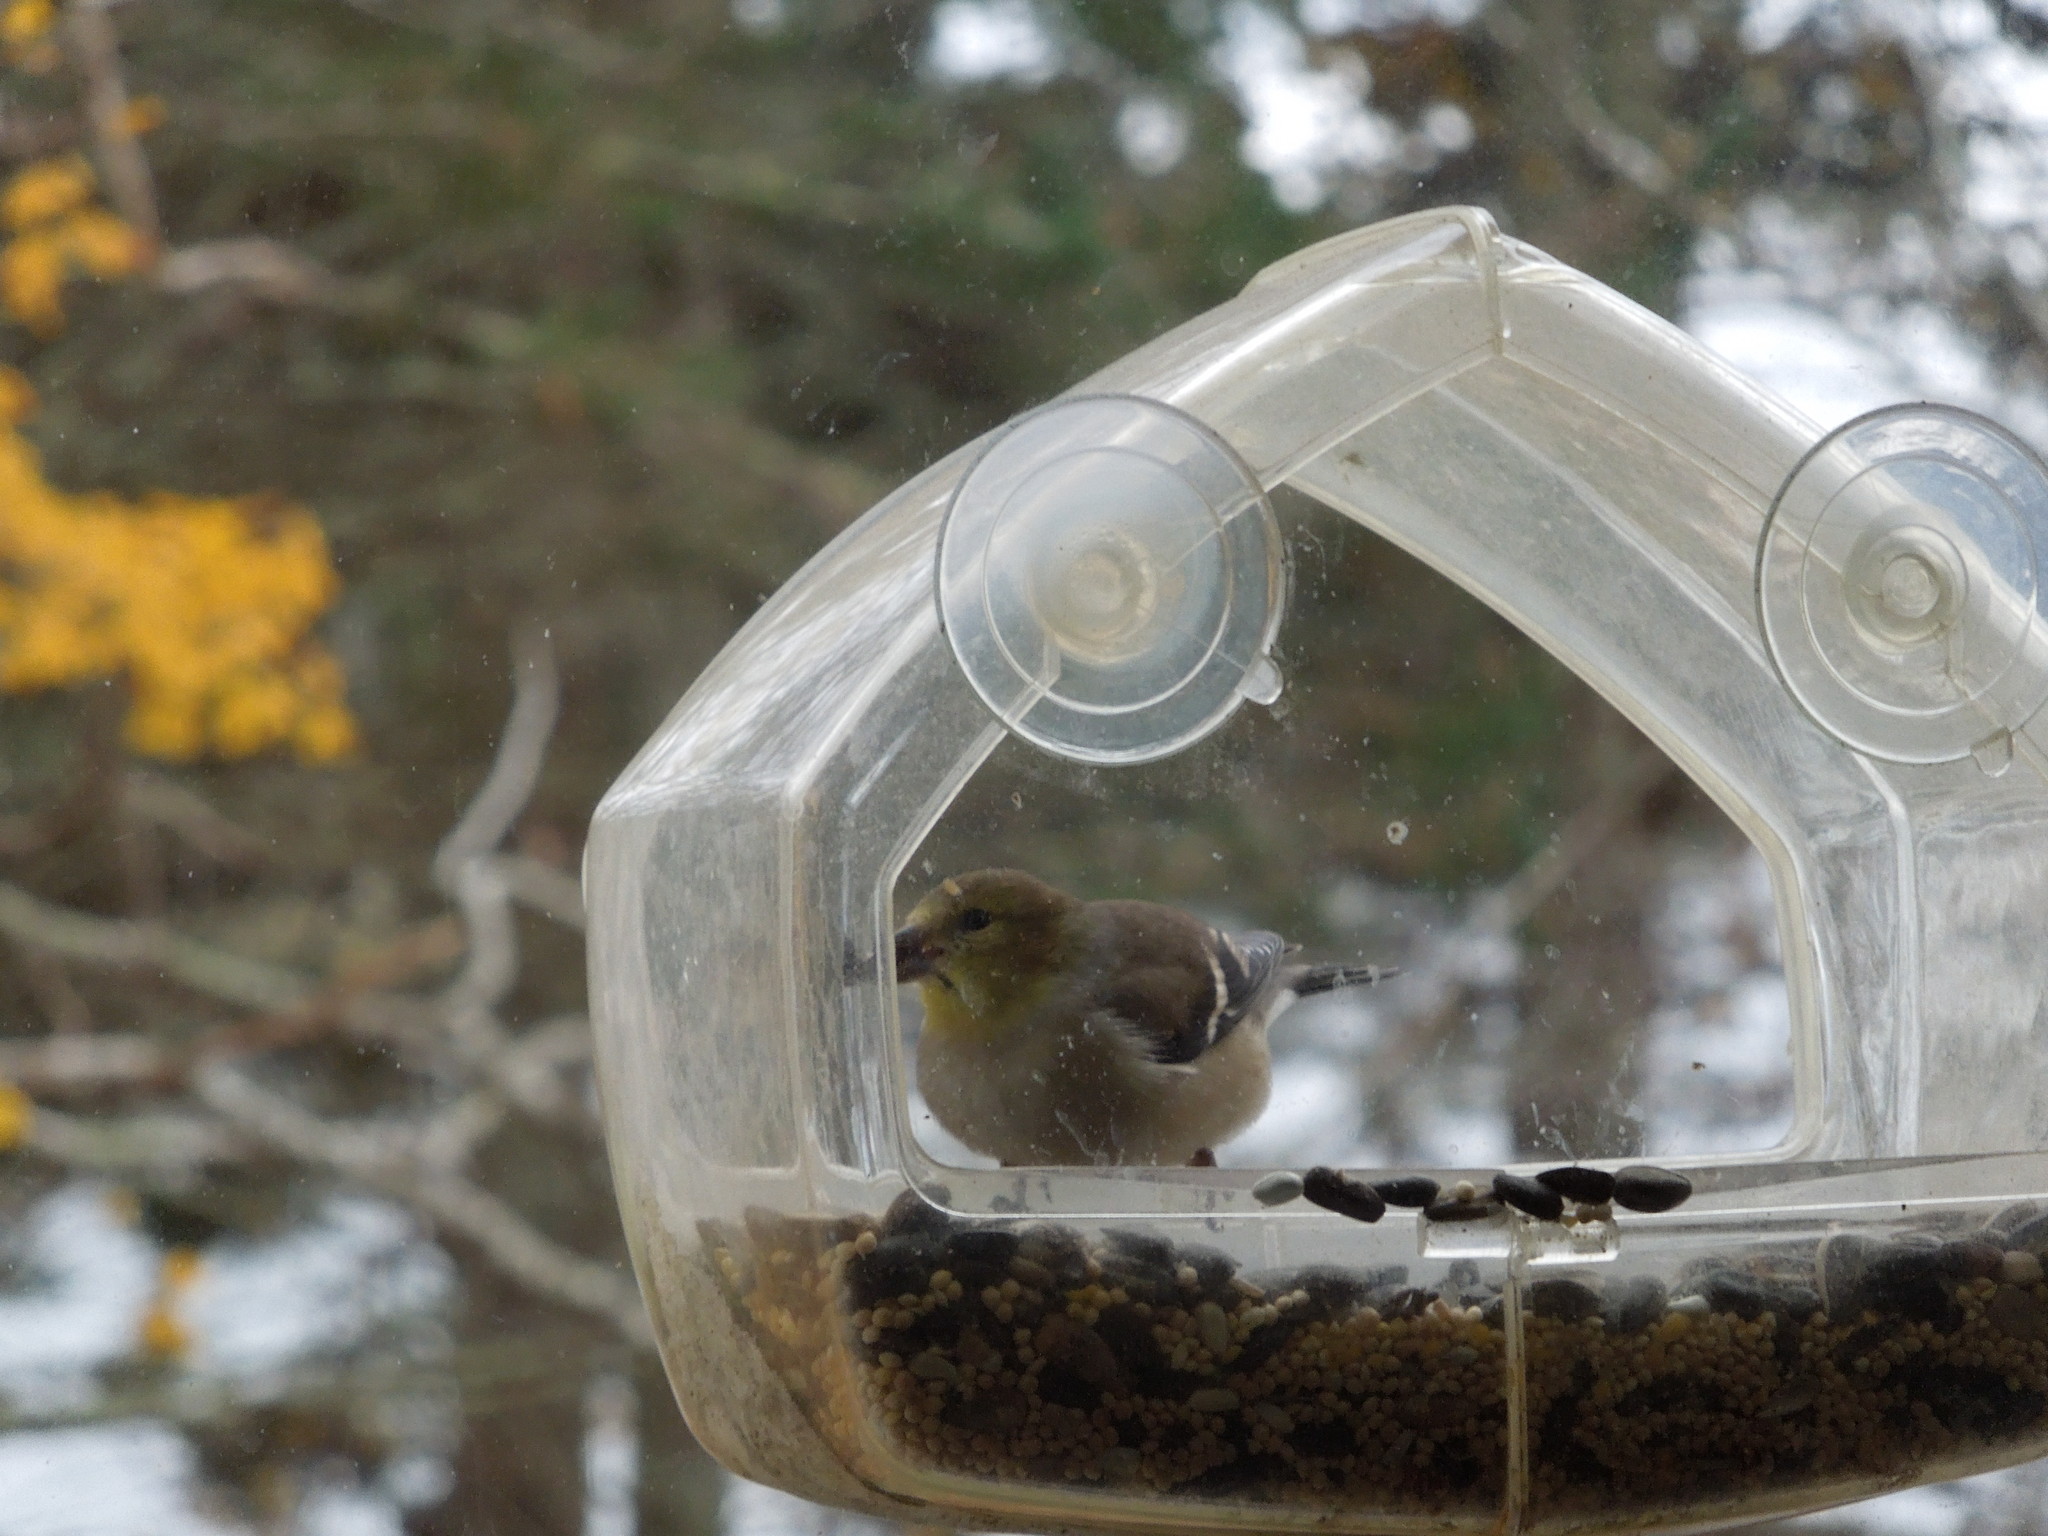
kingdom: Animalia
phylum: Chordata
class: Aves
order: Passeriformes
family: Fringillidae
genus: Spinus
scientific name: Spinus tristis
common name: American goldfinch
